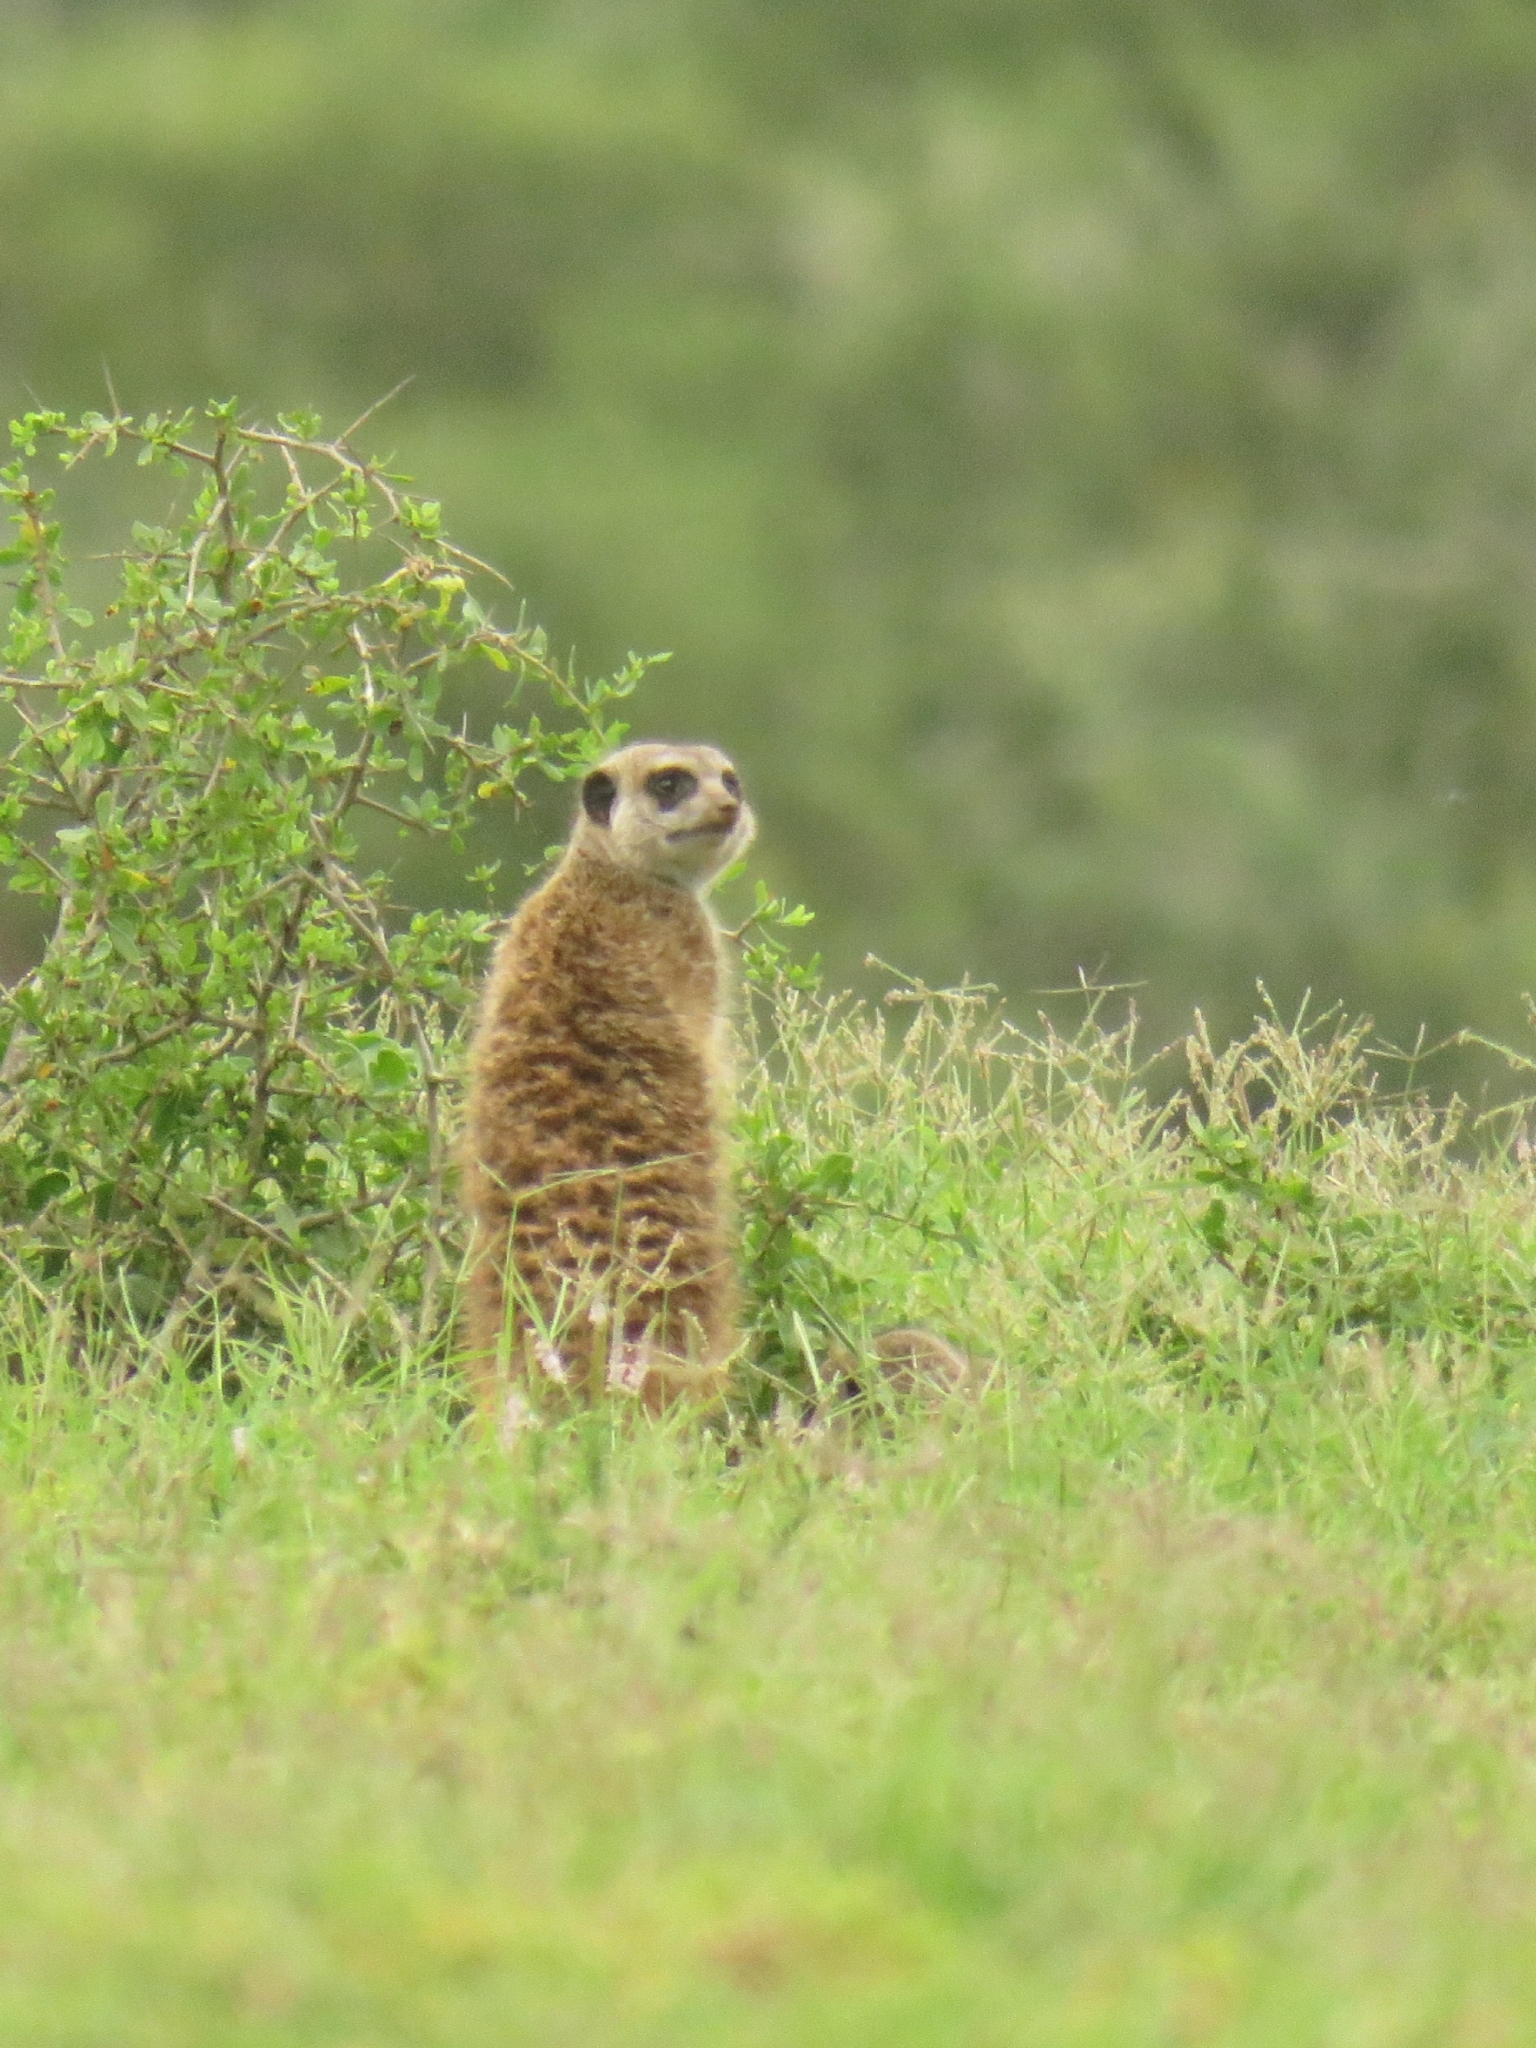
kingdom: Animalia
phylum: Chordata
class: Mammalia
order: Carnivora
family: Herpestidae
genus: Suricata
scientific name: Suricata suricatta
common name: Meerkat
